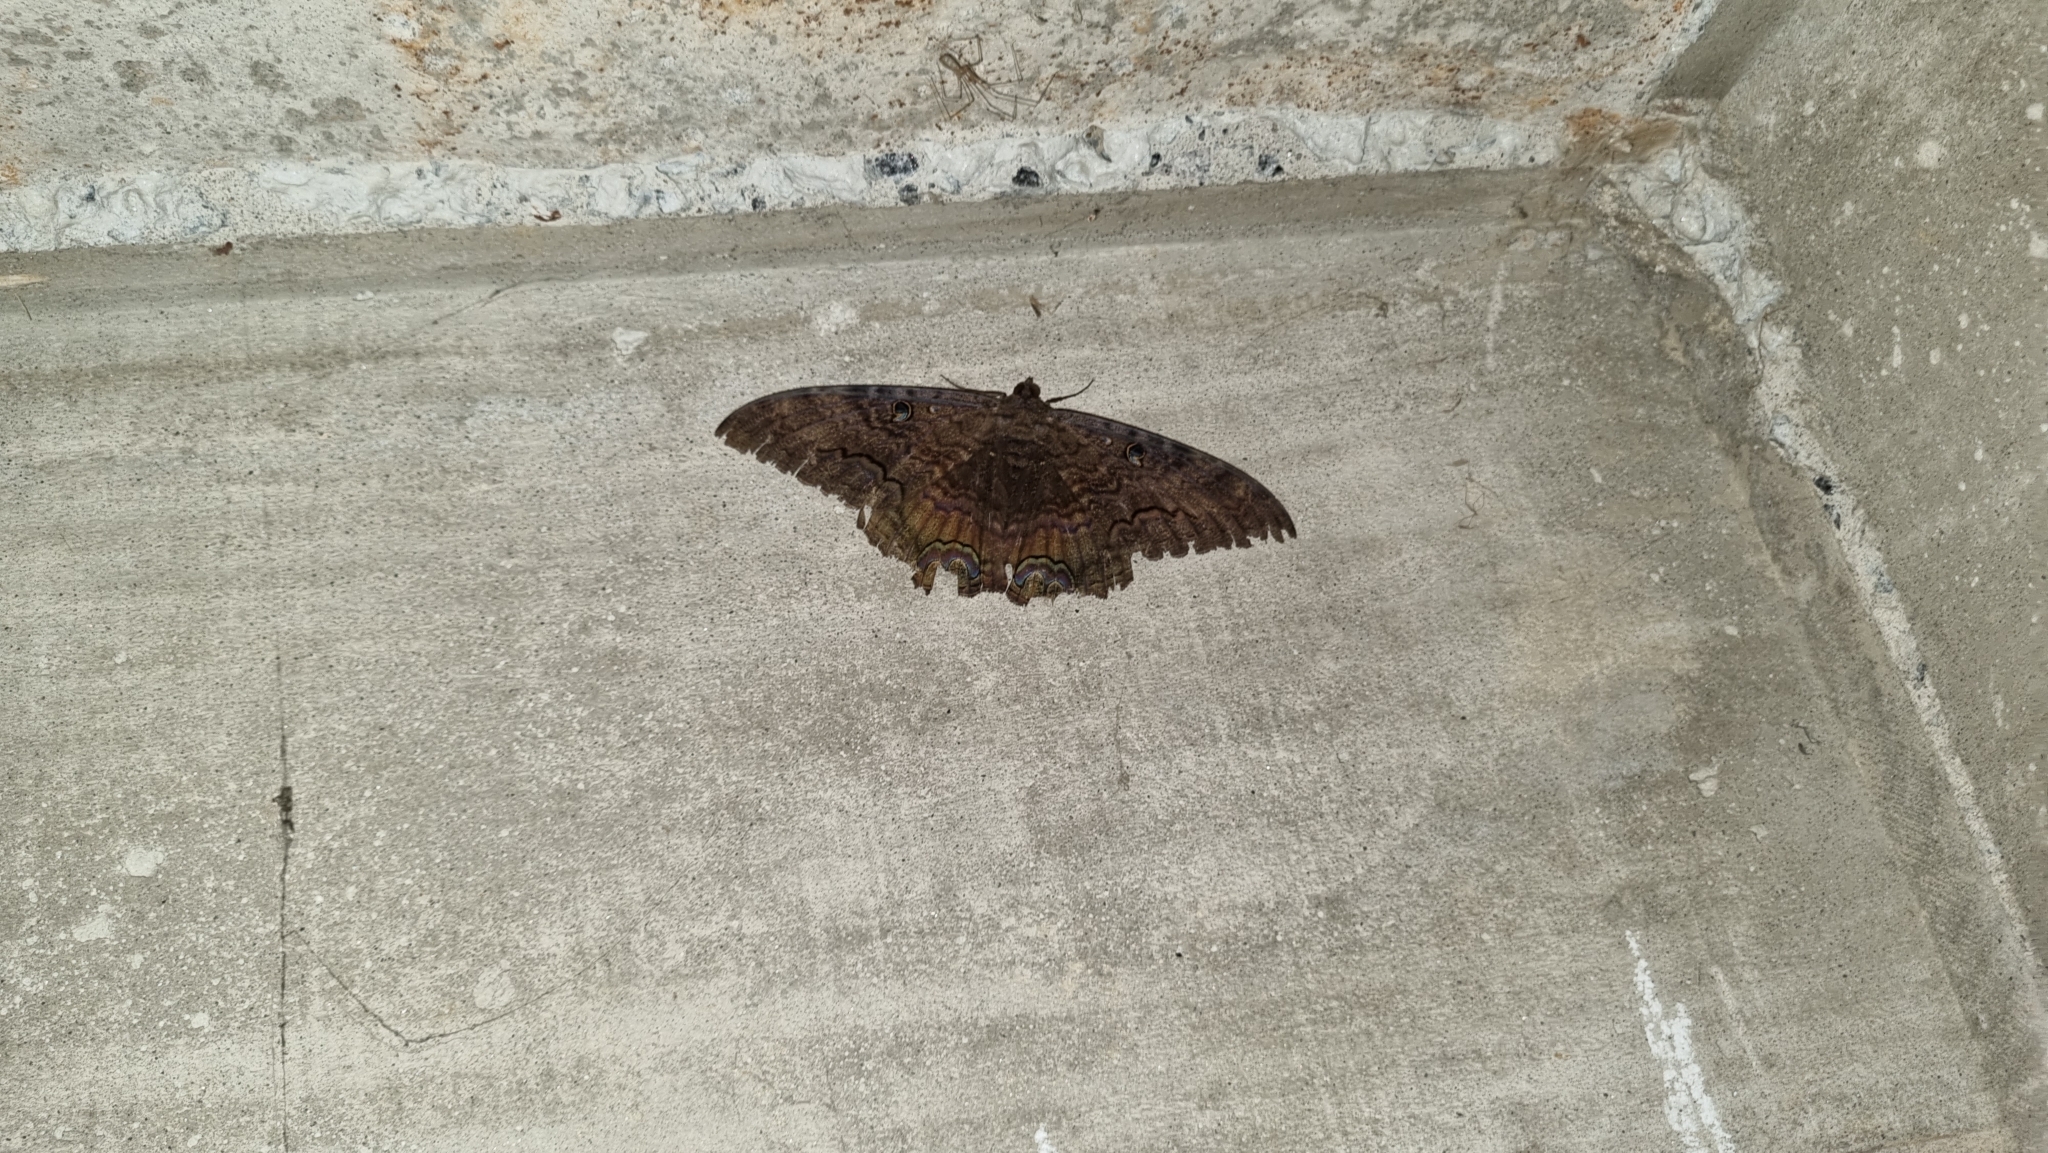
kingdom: Animalia
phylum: Arthropoda
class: Insecta
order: Lepidoptera
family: Erebidae
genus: Ascalapha
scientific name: Ascalapha odorata
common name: Black witch
